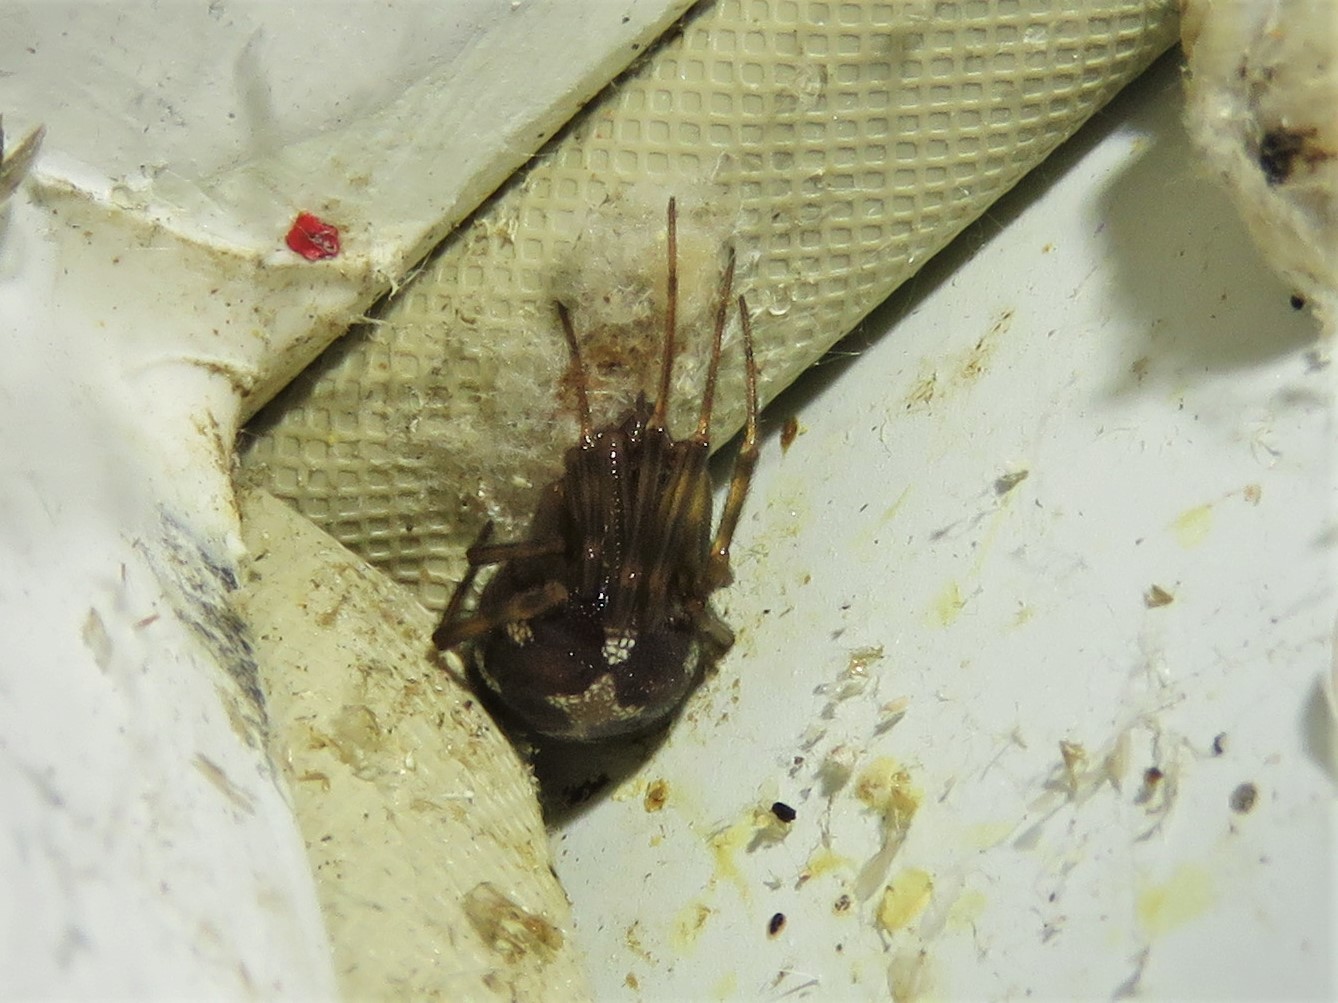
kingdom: Animalia
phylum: Arthropoda
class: Arachnida
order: Araneae
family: Theridiidae
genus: Steatoda
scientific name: Steatoda triangulosa
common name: Triangulate bud spider
